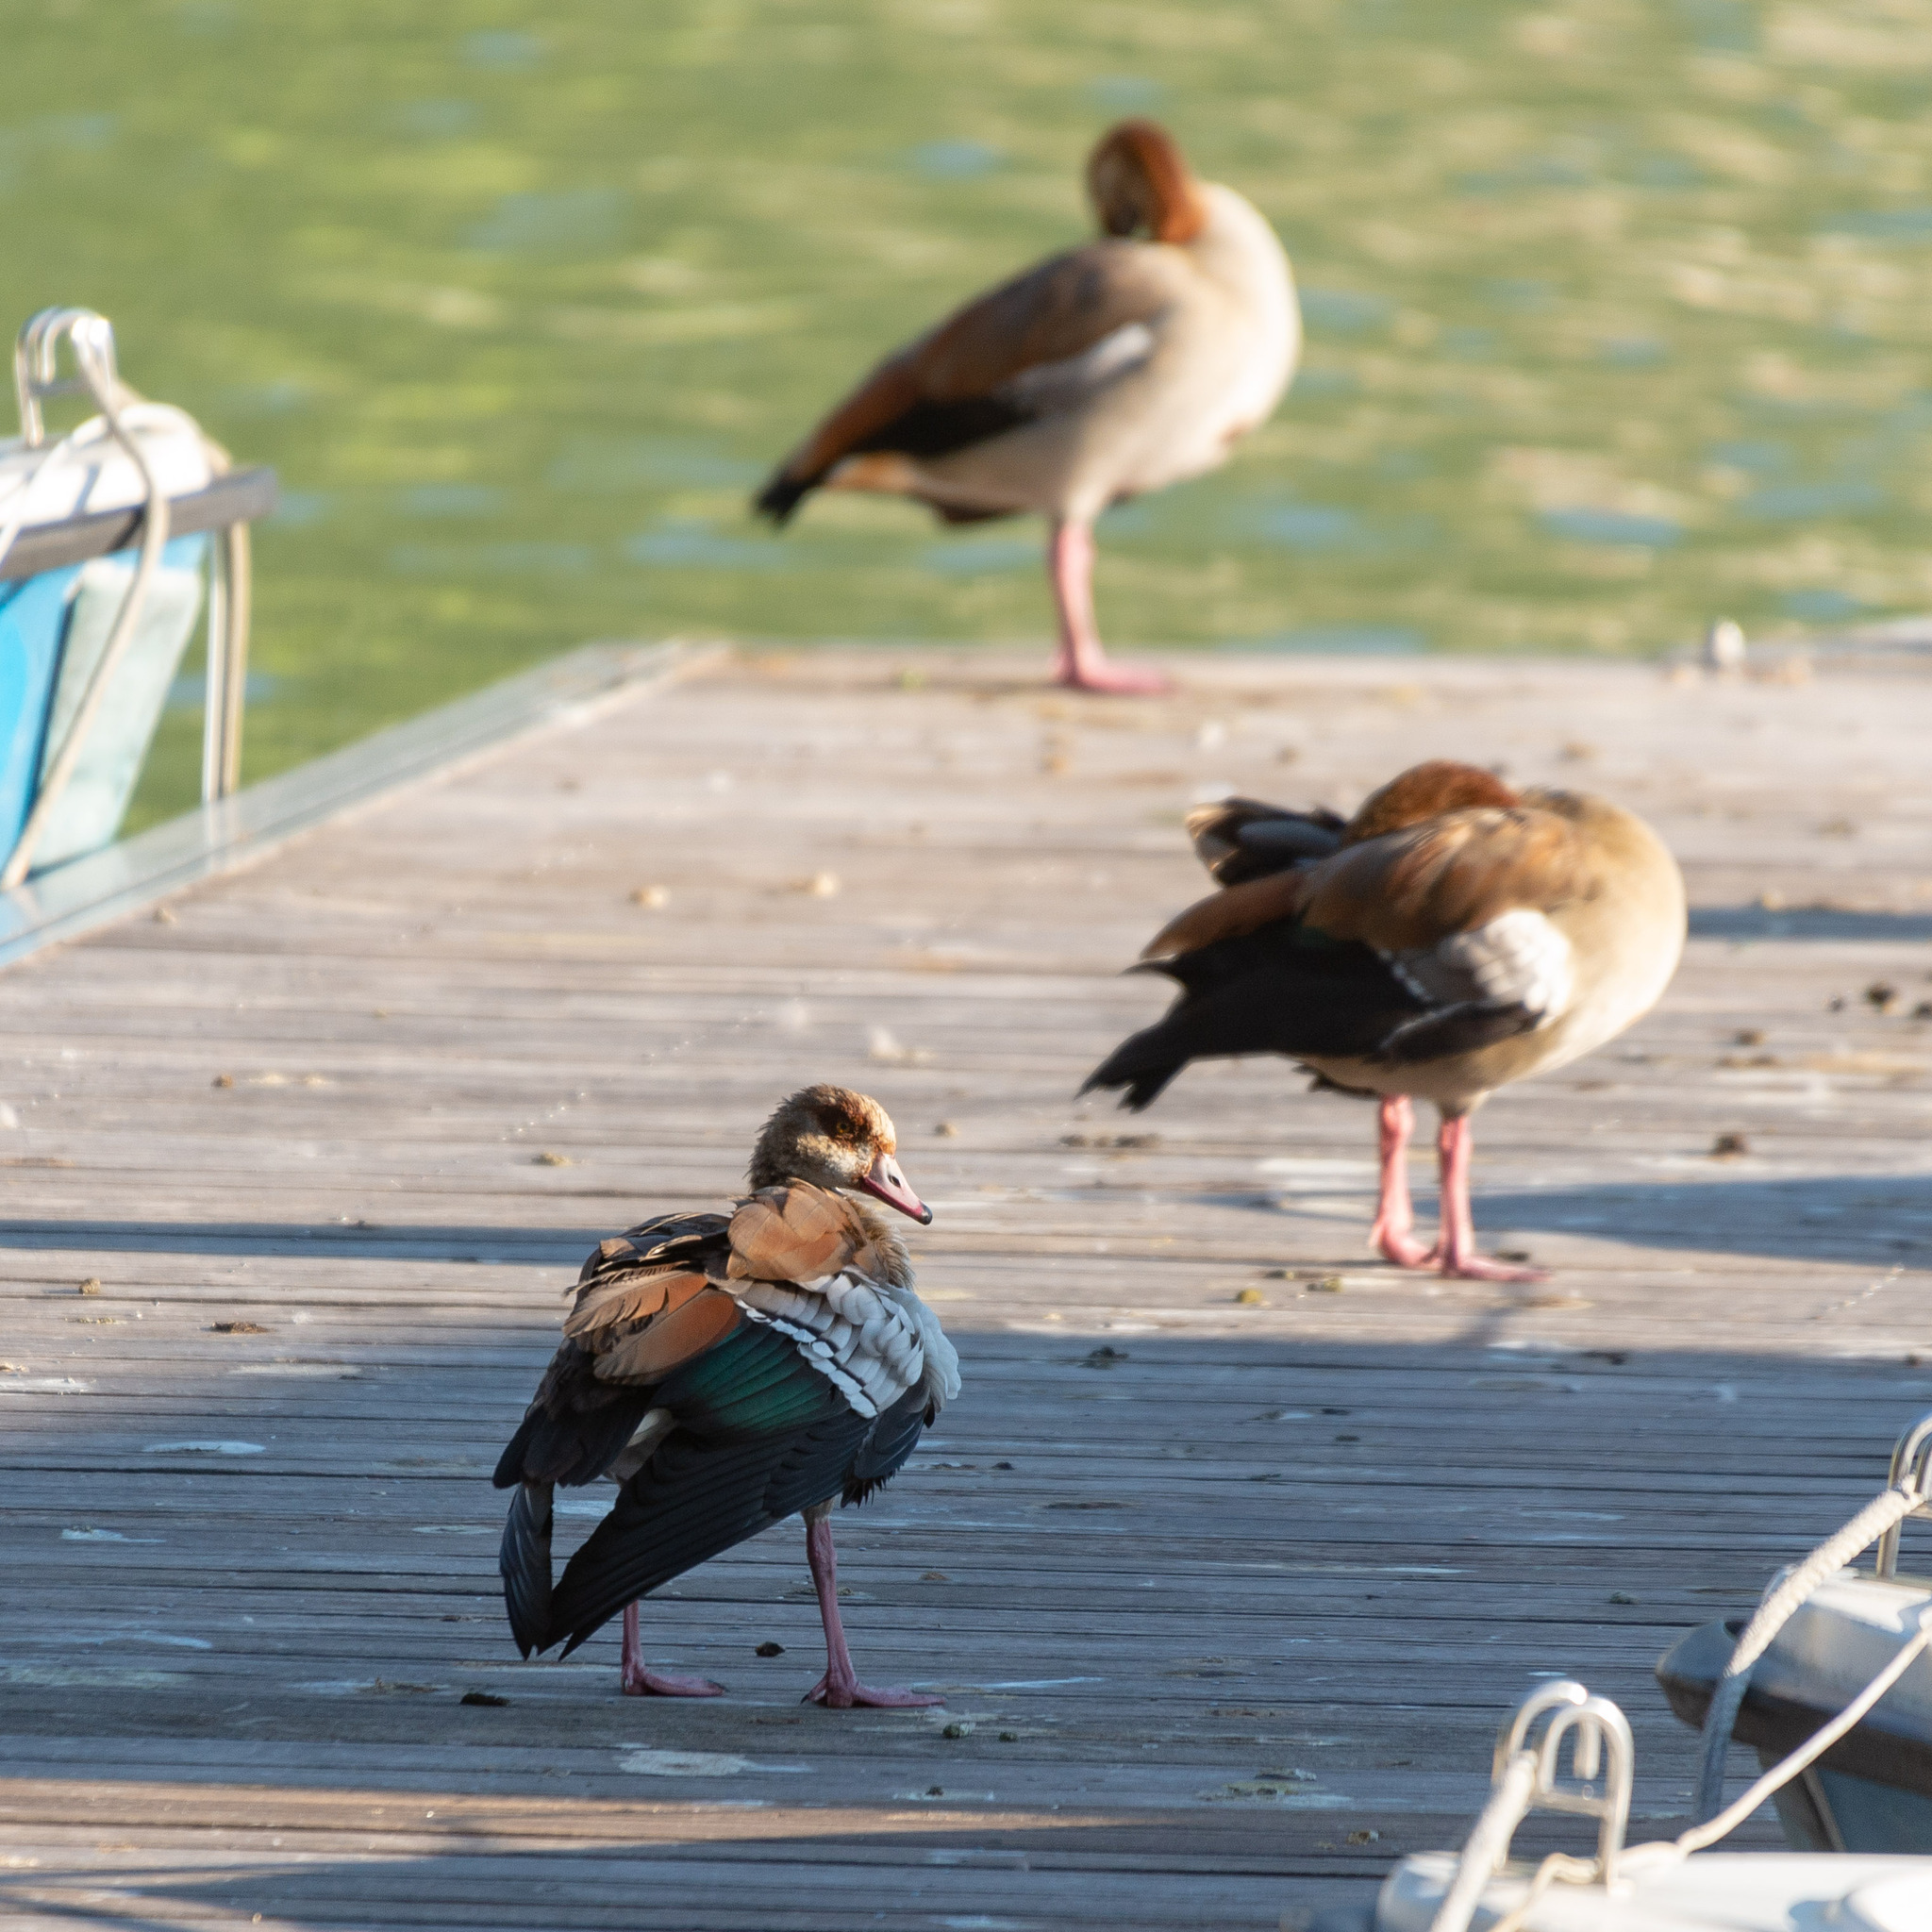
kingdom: Animalia
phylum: Chordata
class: Aves
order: Anseriformes
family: Anatidae
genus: Alopochen
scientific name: Alopochen aegyptiaca
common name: Egyptian goose
